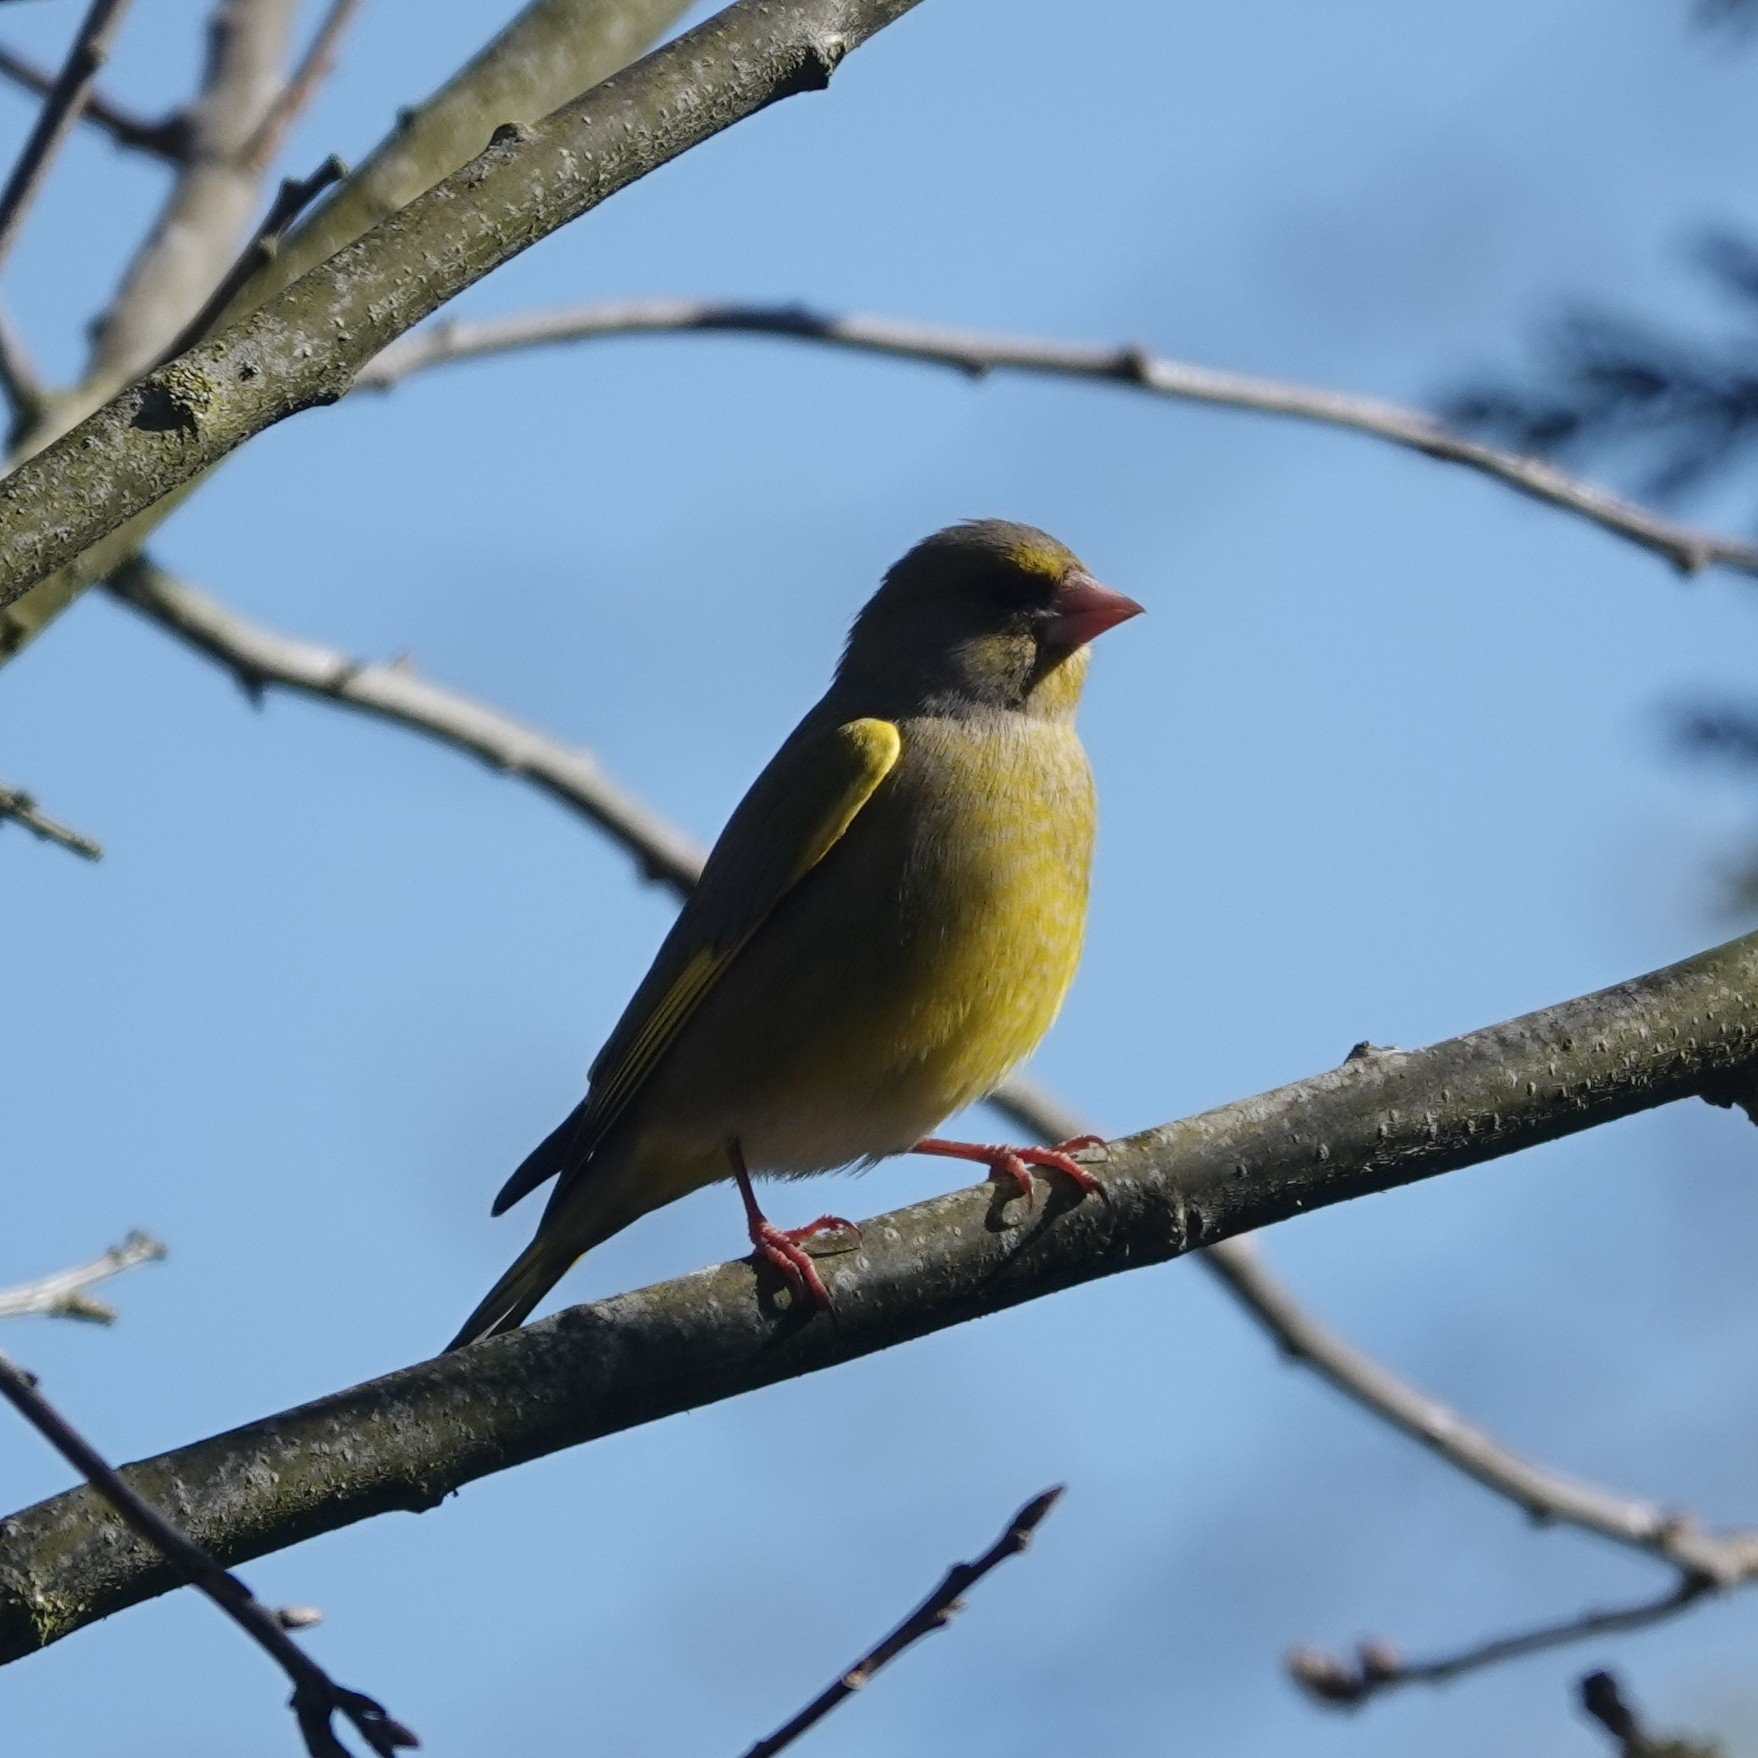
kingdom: Plantae
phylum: Tracheophyta
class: Liliopsida
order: Poales
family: Poaceae
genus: Chloris
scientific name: Chloris chloris
